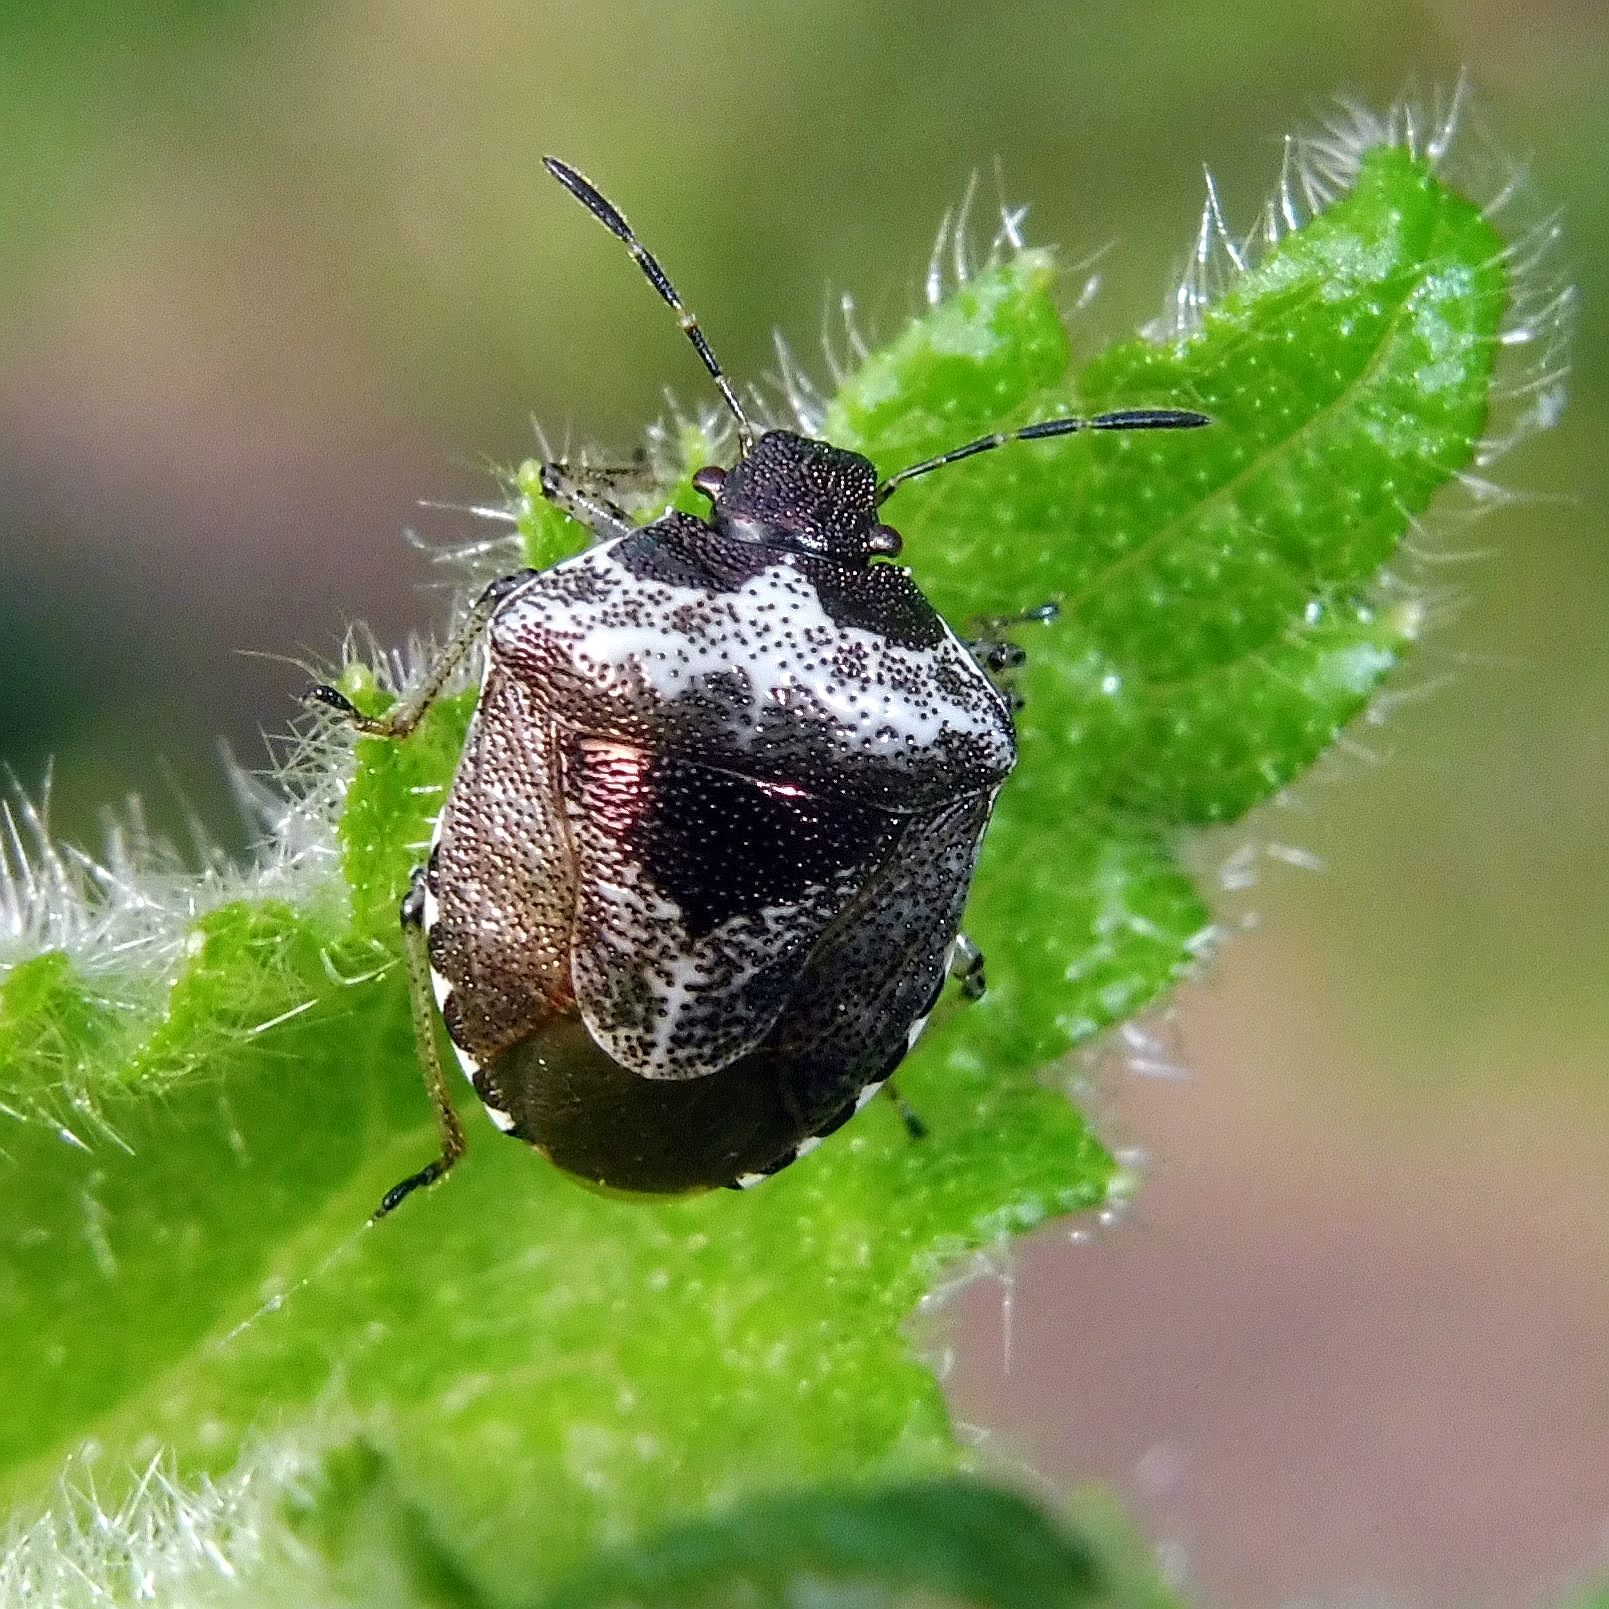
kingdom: Animalia
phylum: Arthropoda
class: Insecta
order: Hemiptera
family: Pentatomidae
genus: Eysarcoris
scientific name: Eysarcoris venustissimus
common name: Woundwort shieldbug
